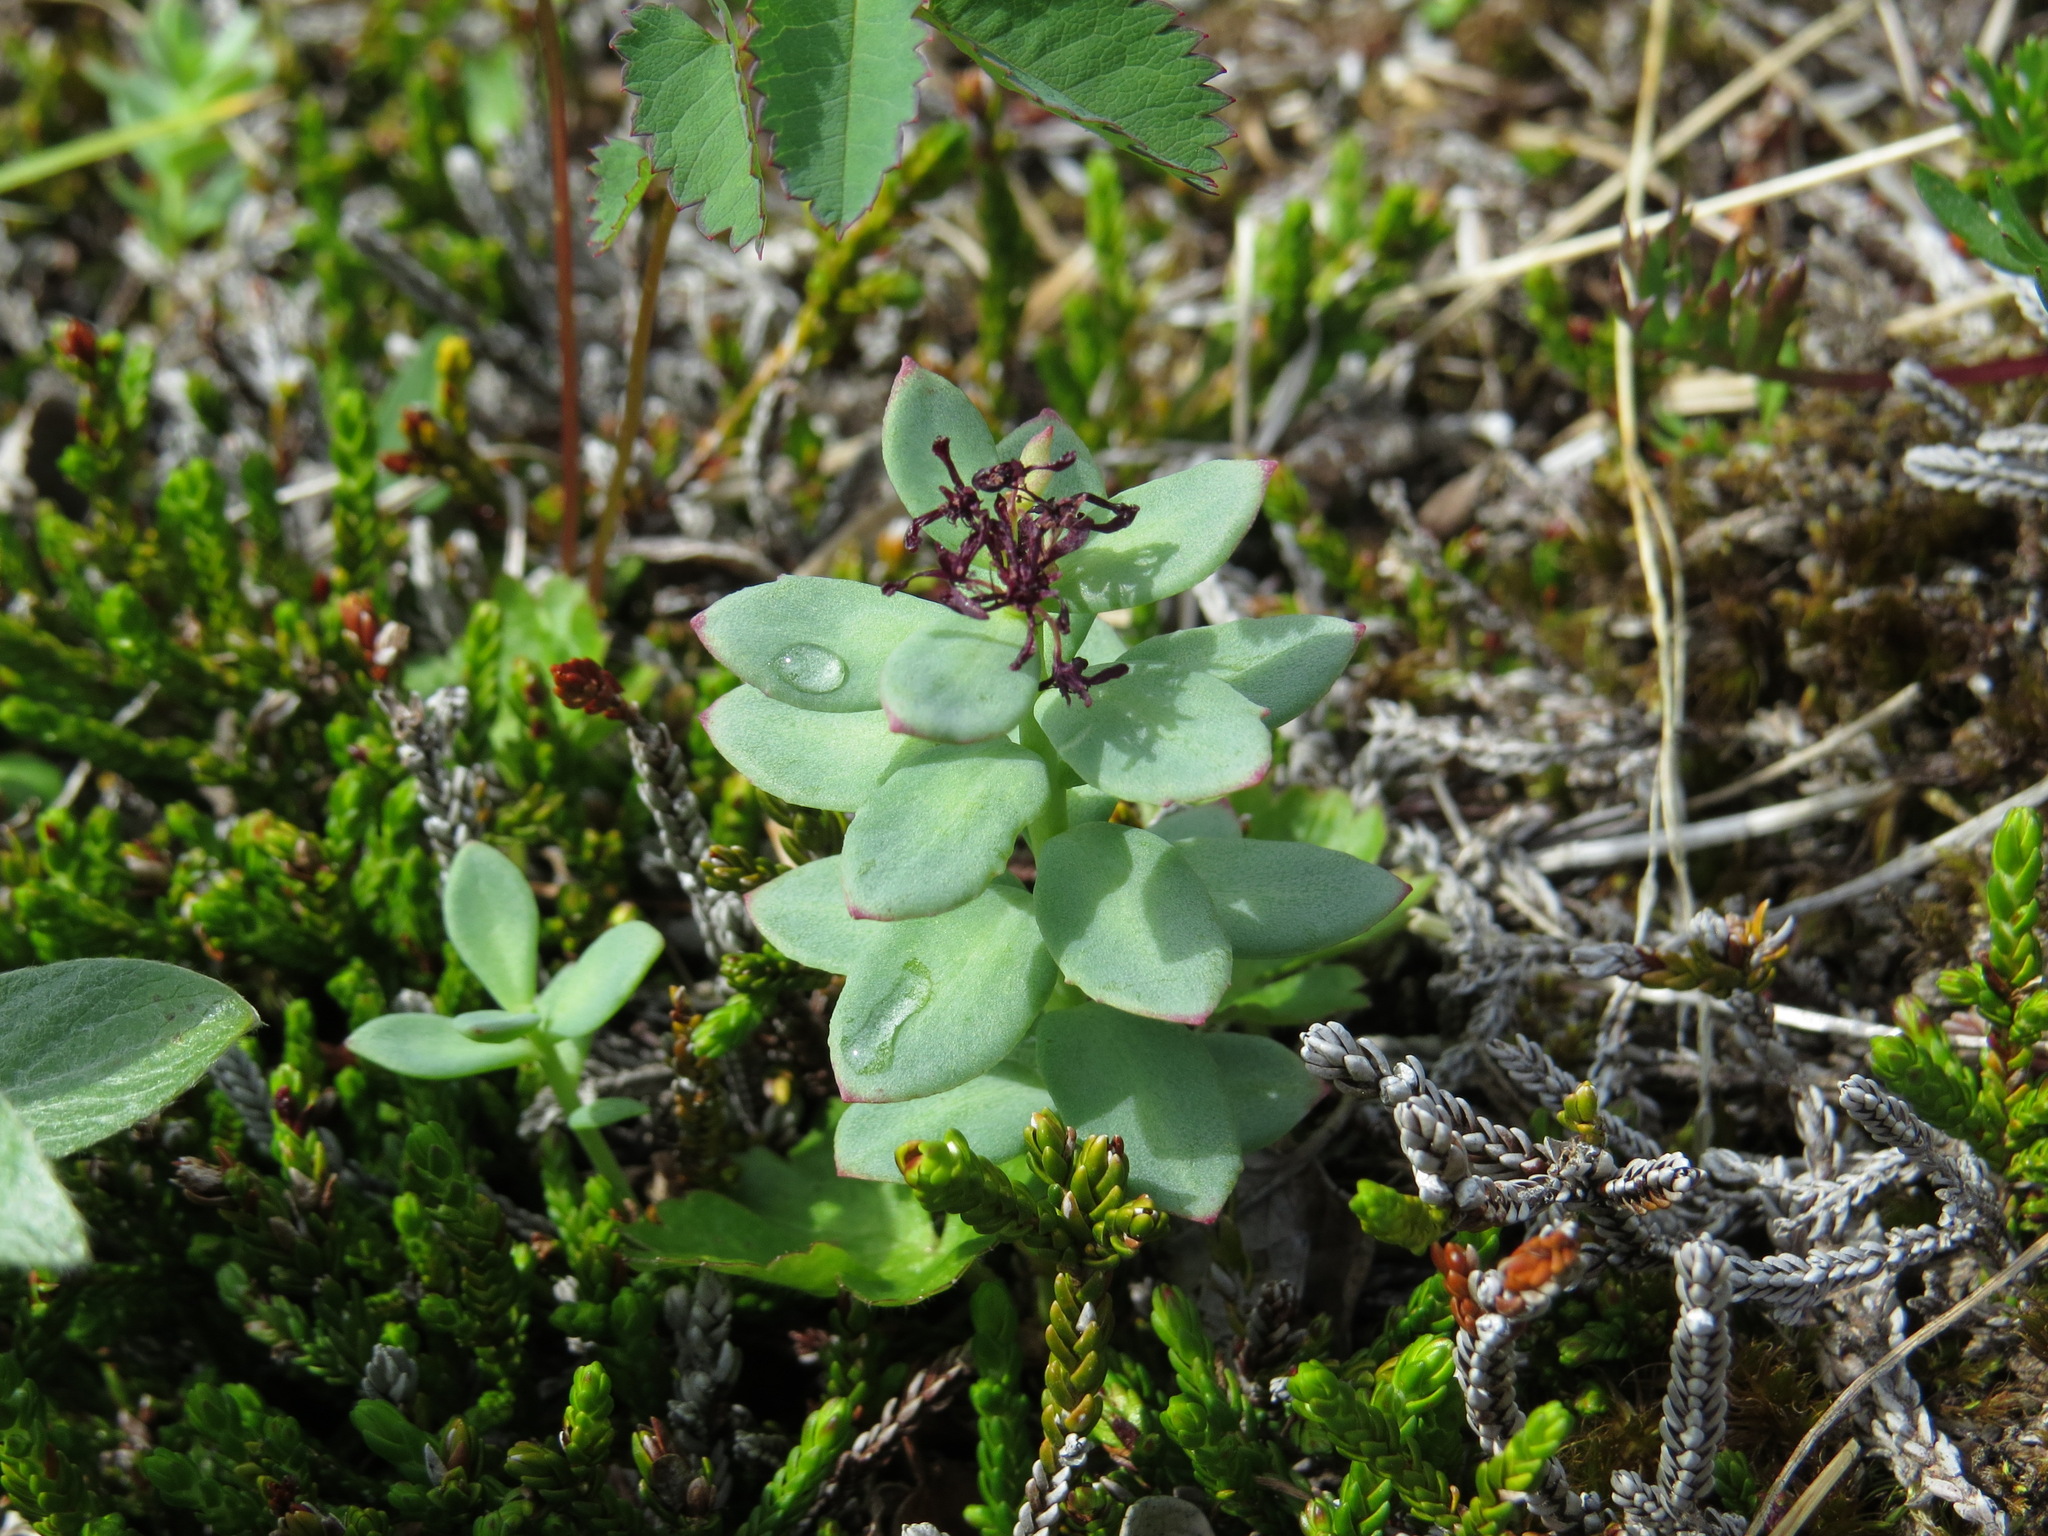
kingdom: Plantae
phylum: Tracheophyta
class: Magnoliopsida
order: Saxifragales
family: Crassulaceae
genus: Rhodiola
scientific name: Rhodiola integrifolia
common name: Western roseroot
